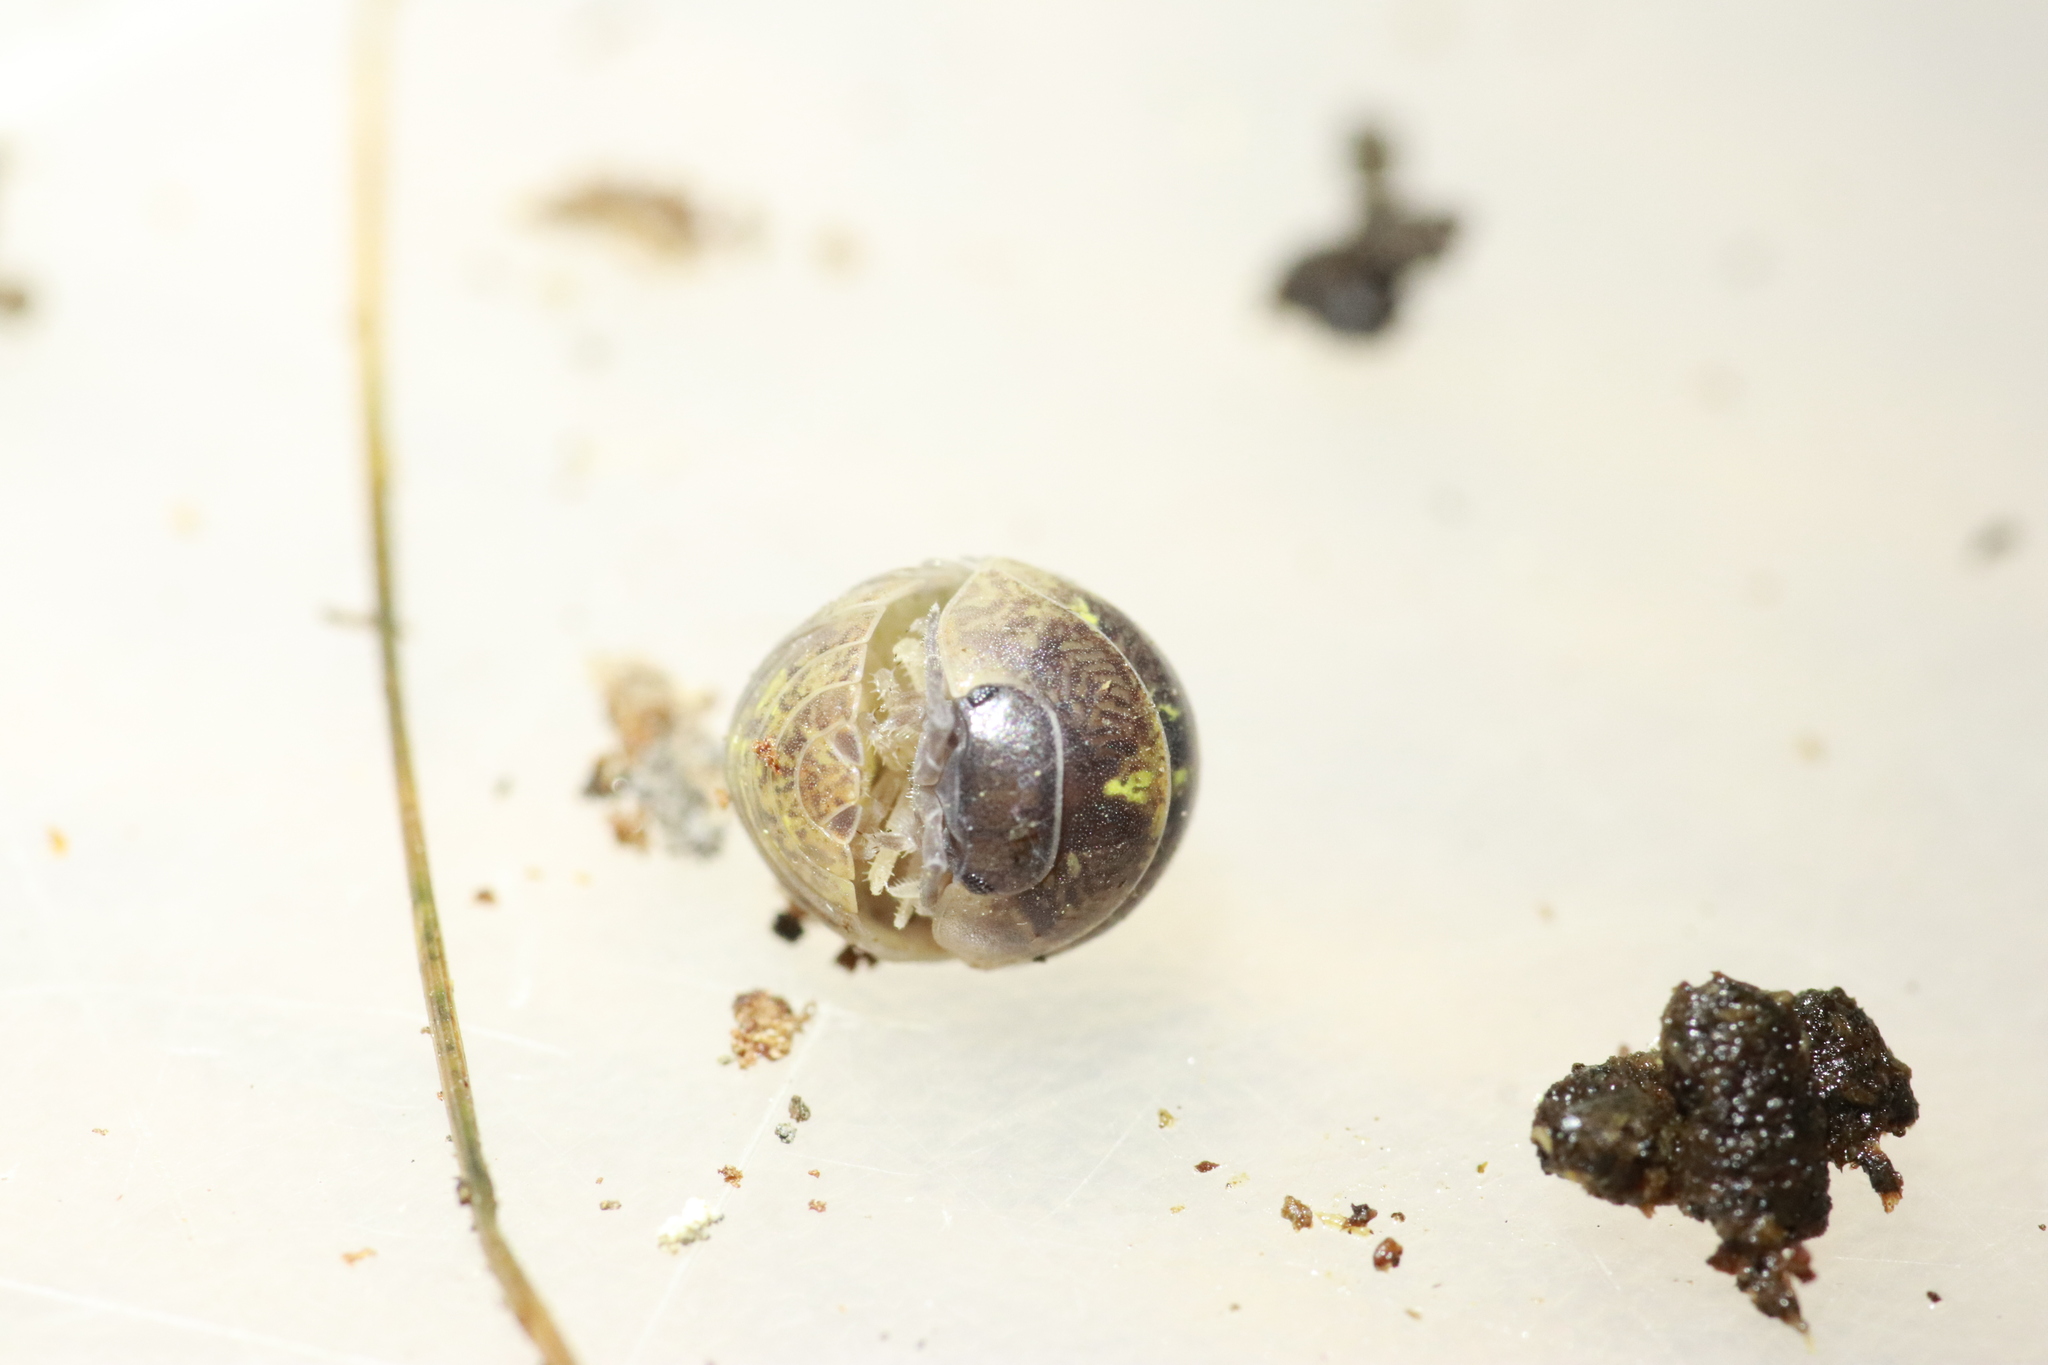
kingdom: Animalia
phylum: Arthropoda
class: Malacostraca
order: Isopoda
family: Armadillidiidae
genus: Armadillidium
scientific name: Armadillidium vulgare
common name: Common pill woodlouse
